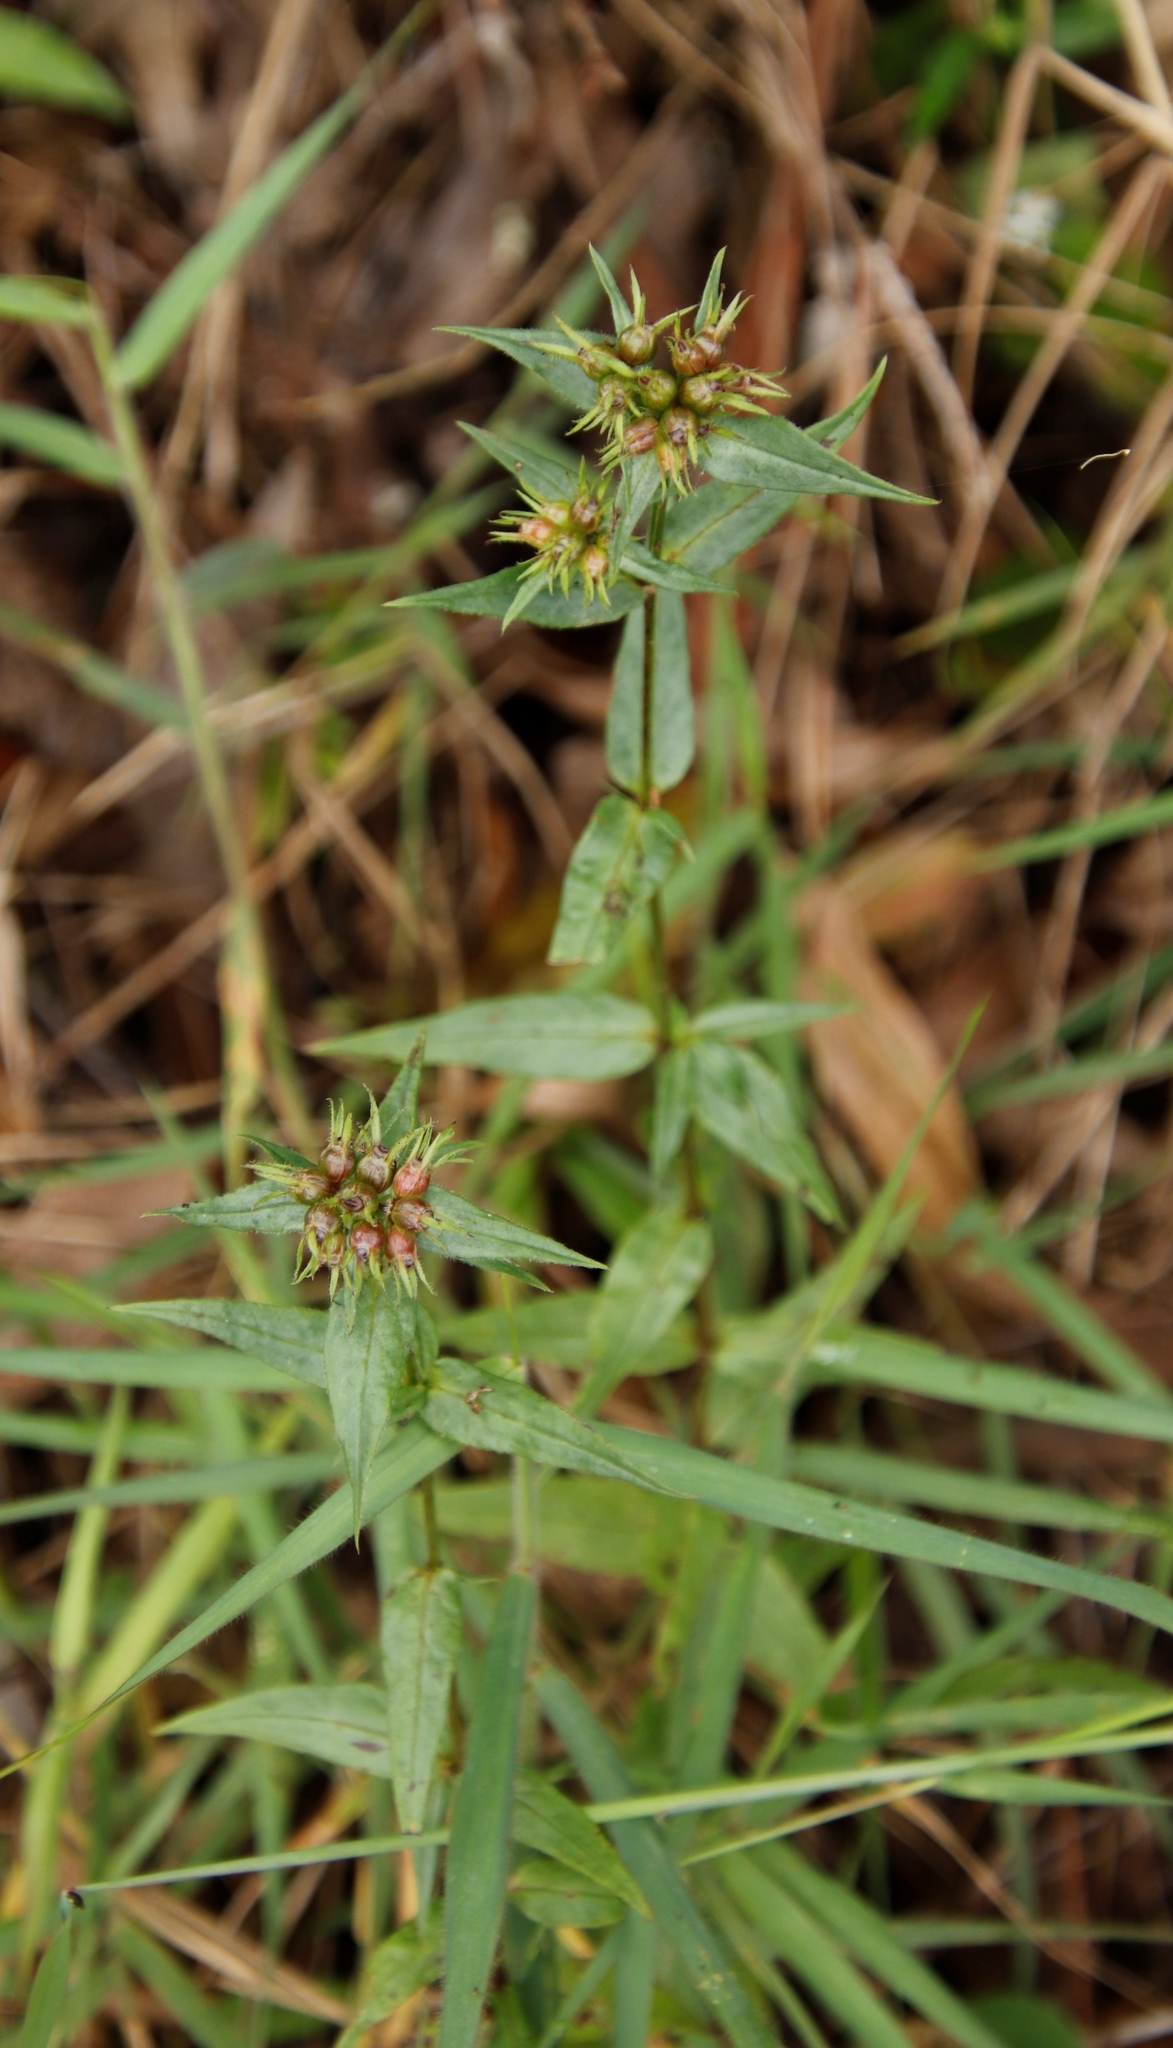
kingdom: Plantae
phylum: Tracheophyta
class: Magnoliopsida
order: Gentianales
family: Rubiaceae
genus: Conostomium
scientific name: Conostomium natalense
